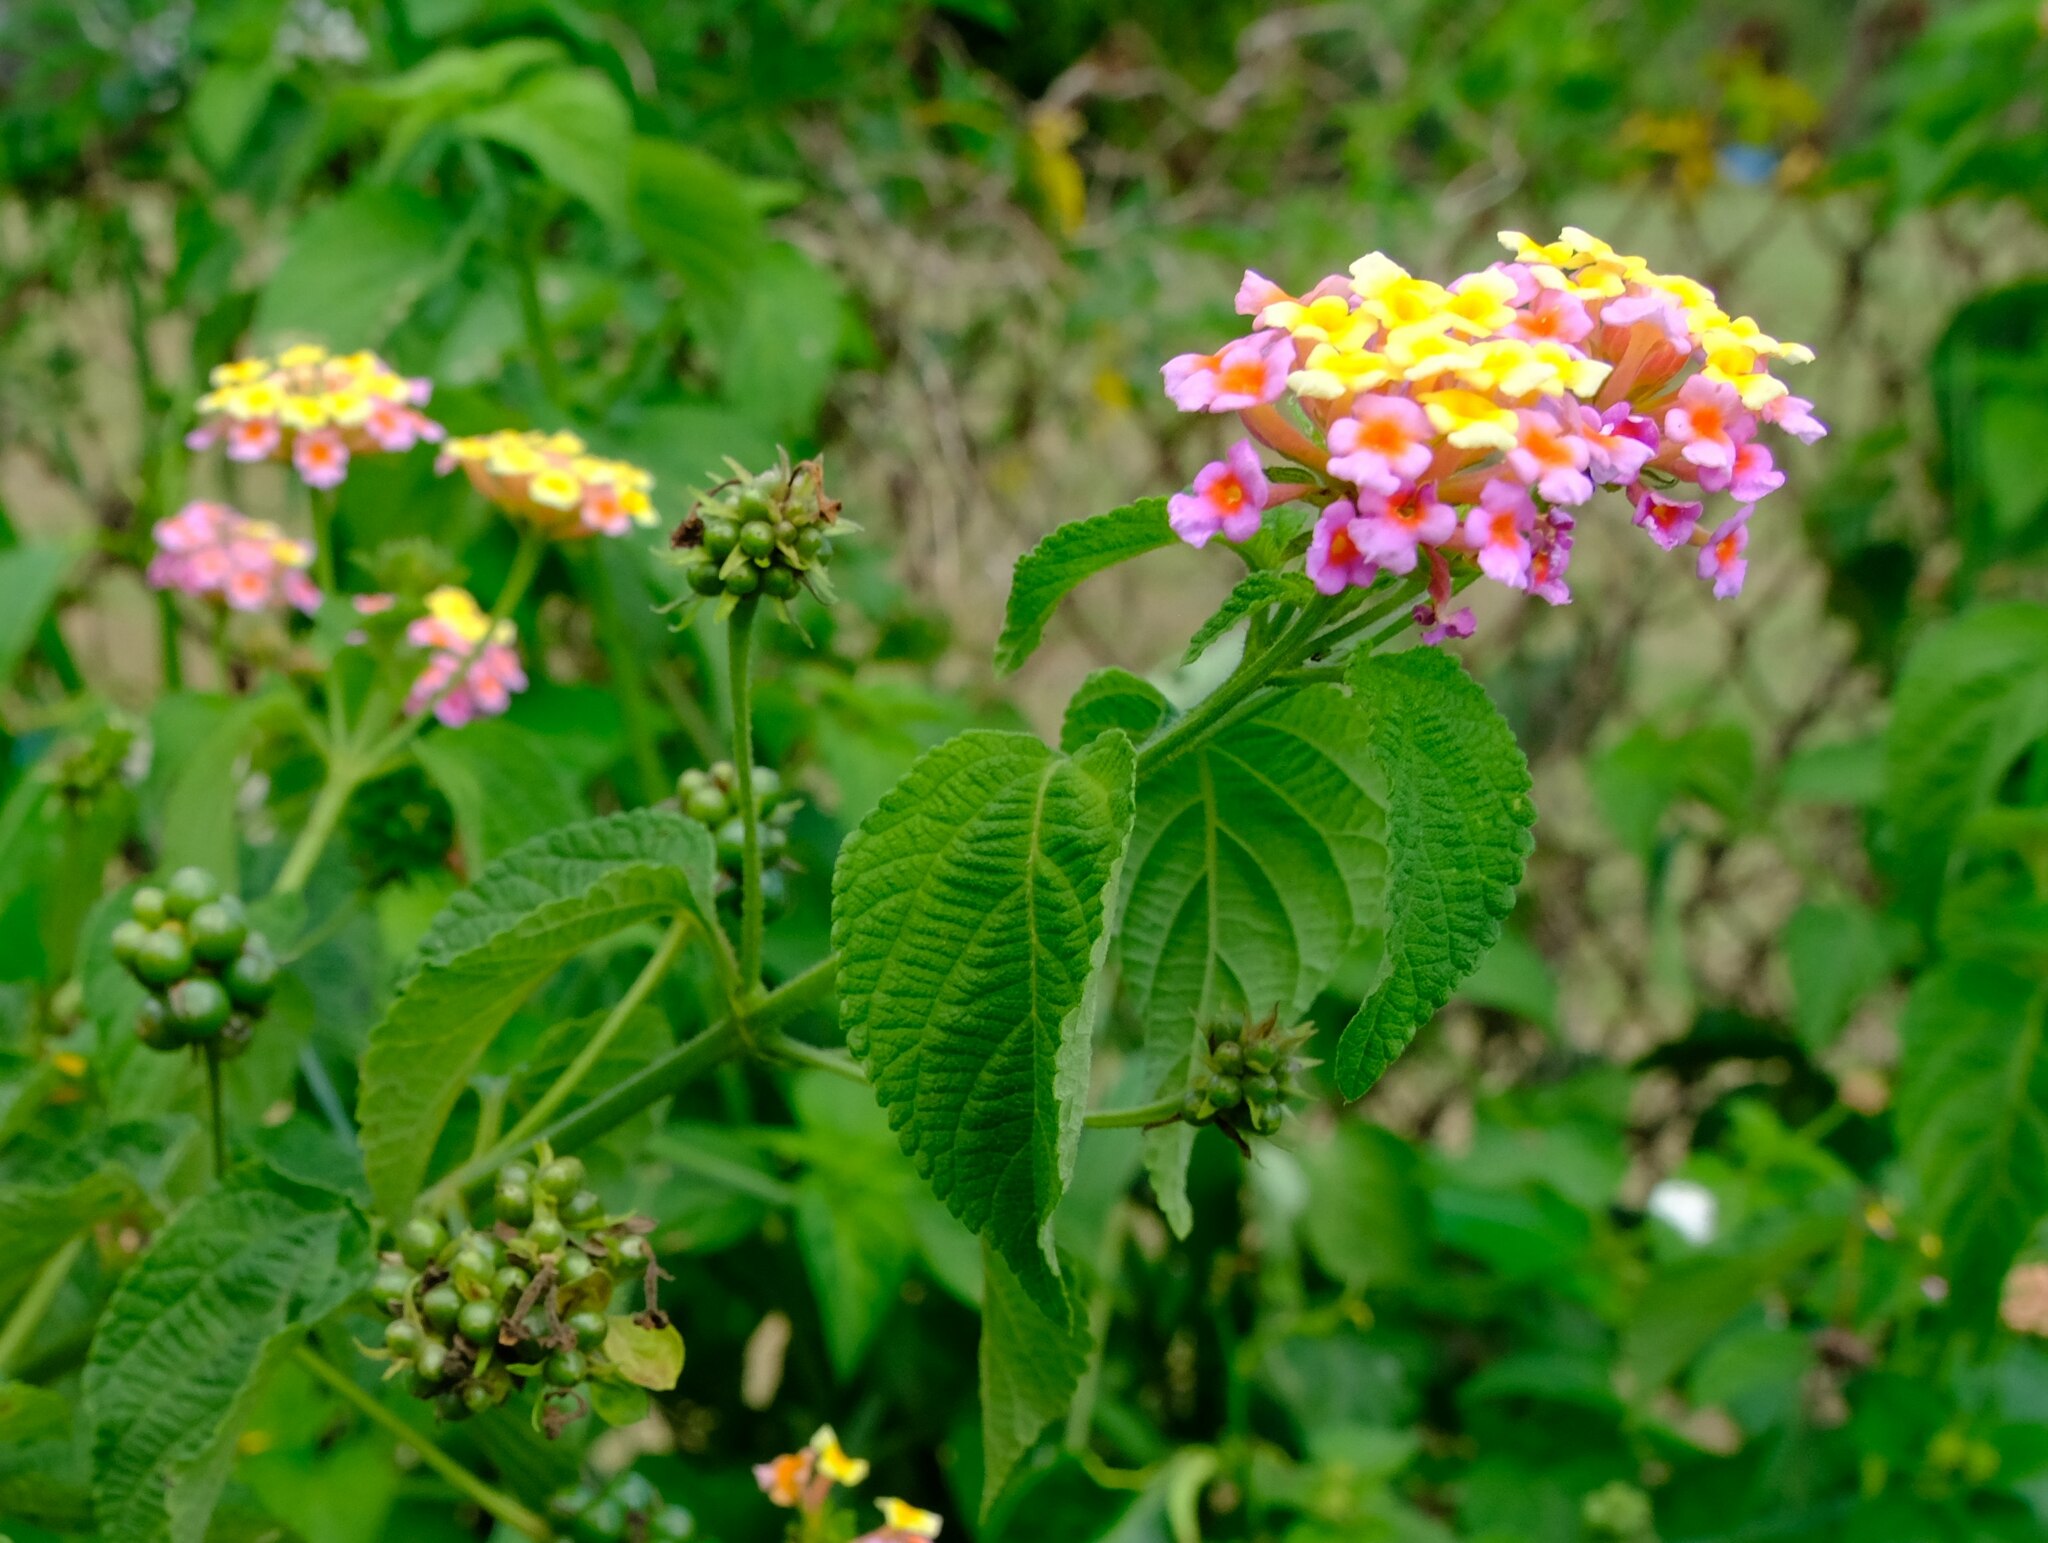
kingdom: Plantae
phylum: Tracheophyta
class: Magnoliopsida
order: Lamiales
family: Verbenaceae
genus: Lantana
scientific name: Lantana camara
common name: Lantana
